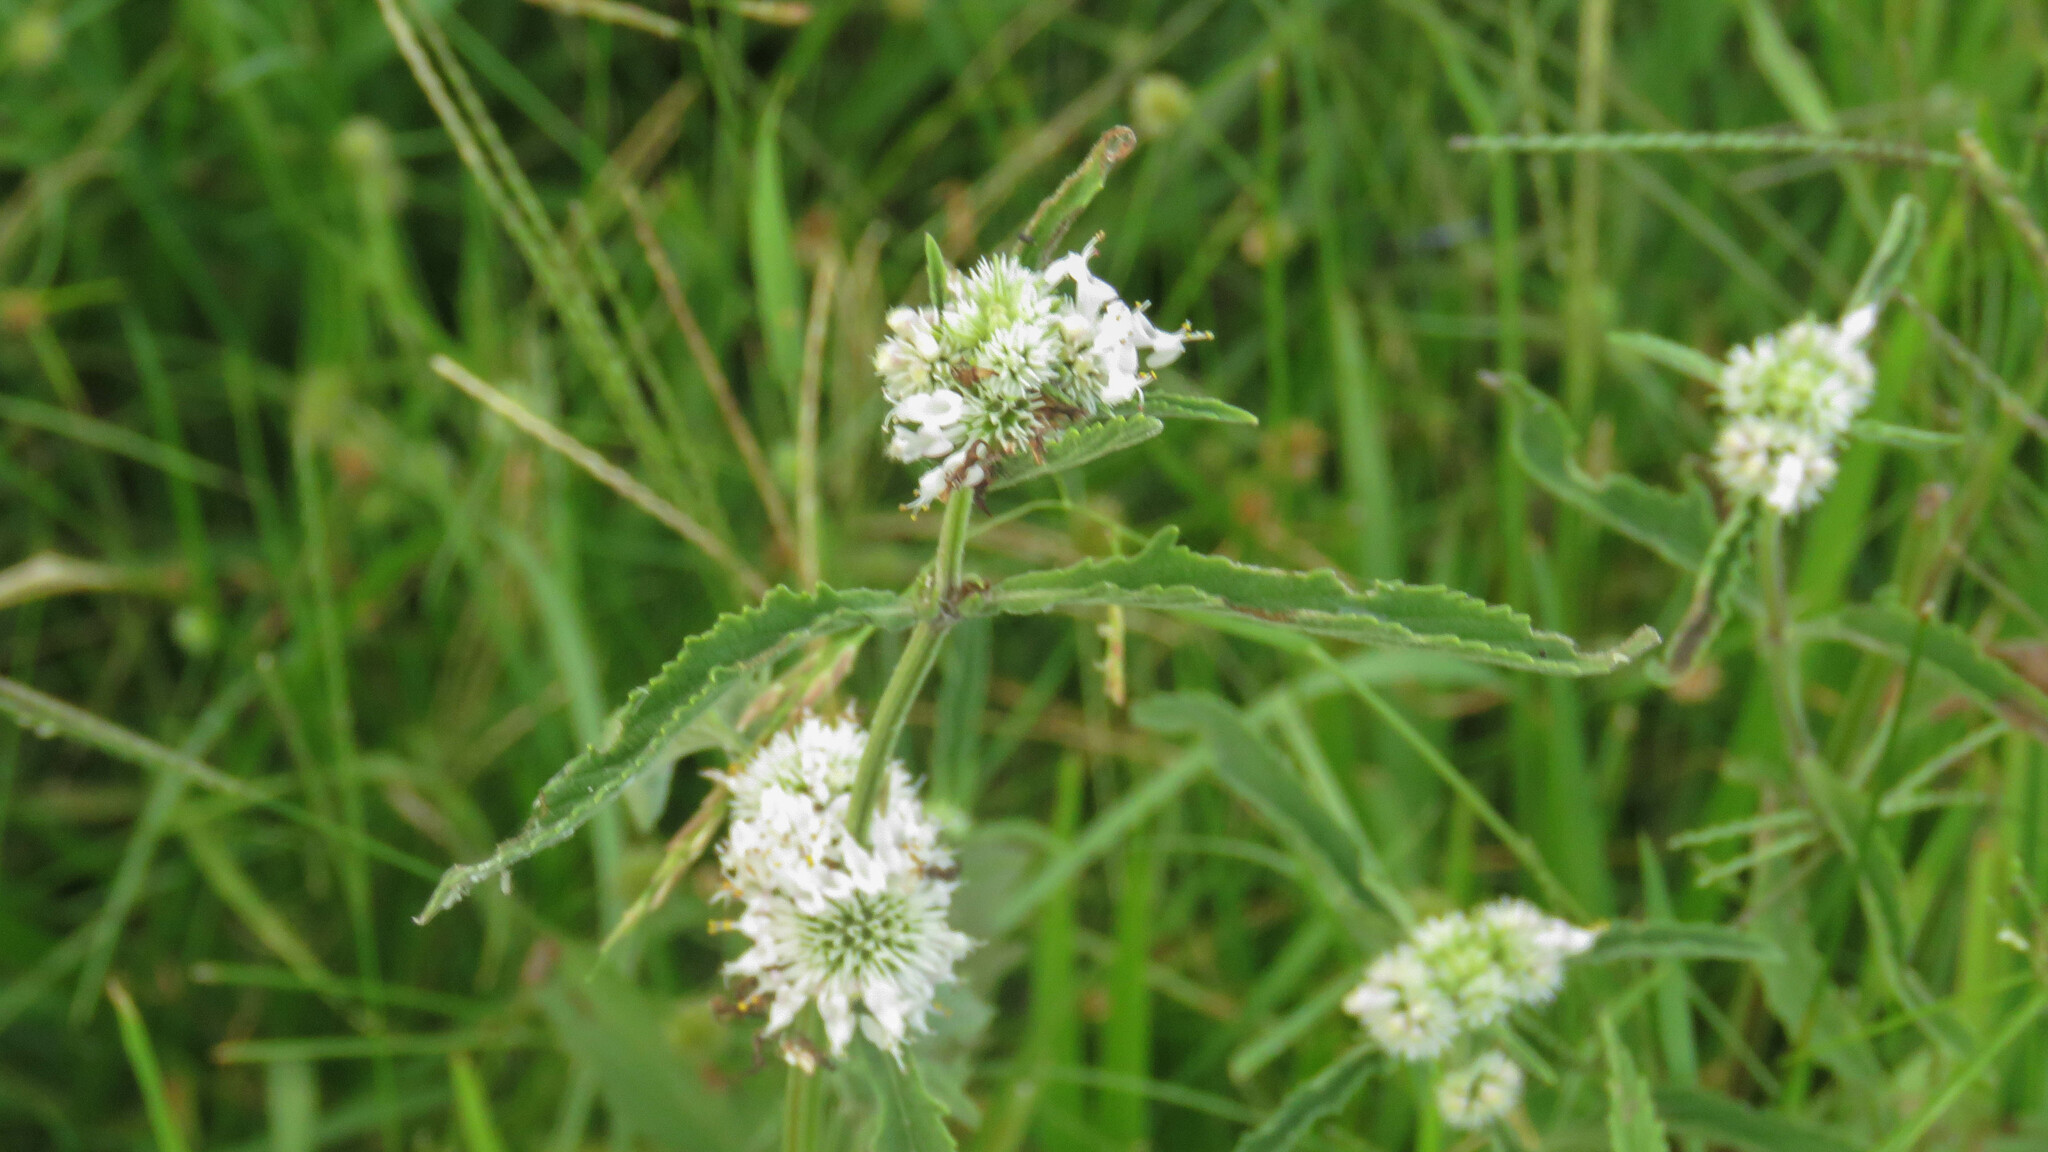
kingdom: Plantae
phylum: Tracheophyta
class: Magnoliopsida
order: Lamiales
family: Lamiaceae
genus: Hyptis
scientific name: Hyptis lappacea
